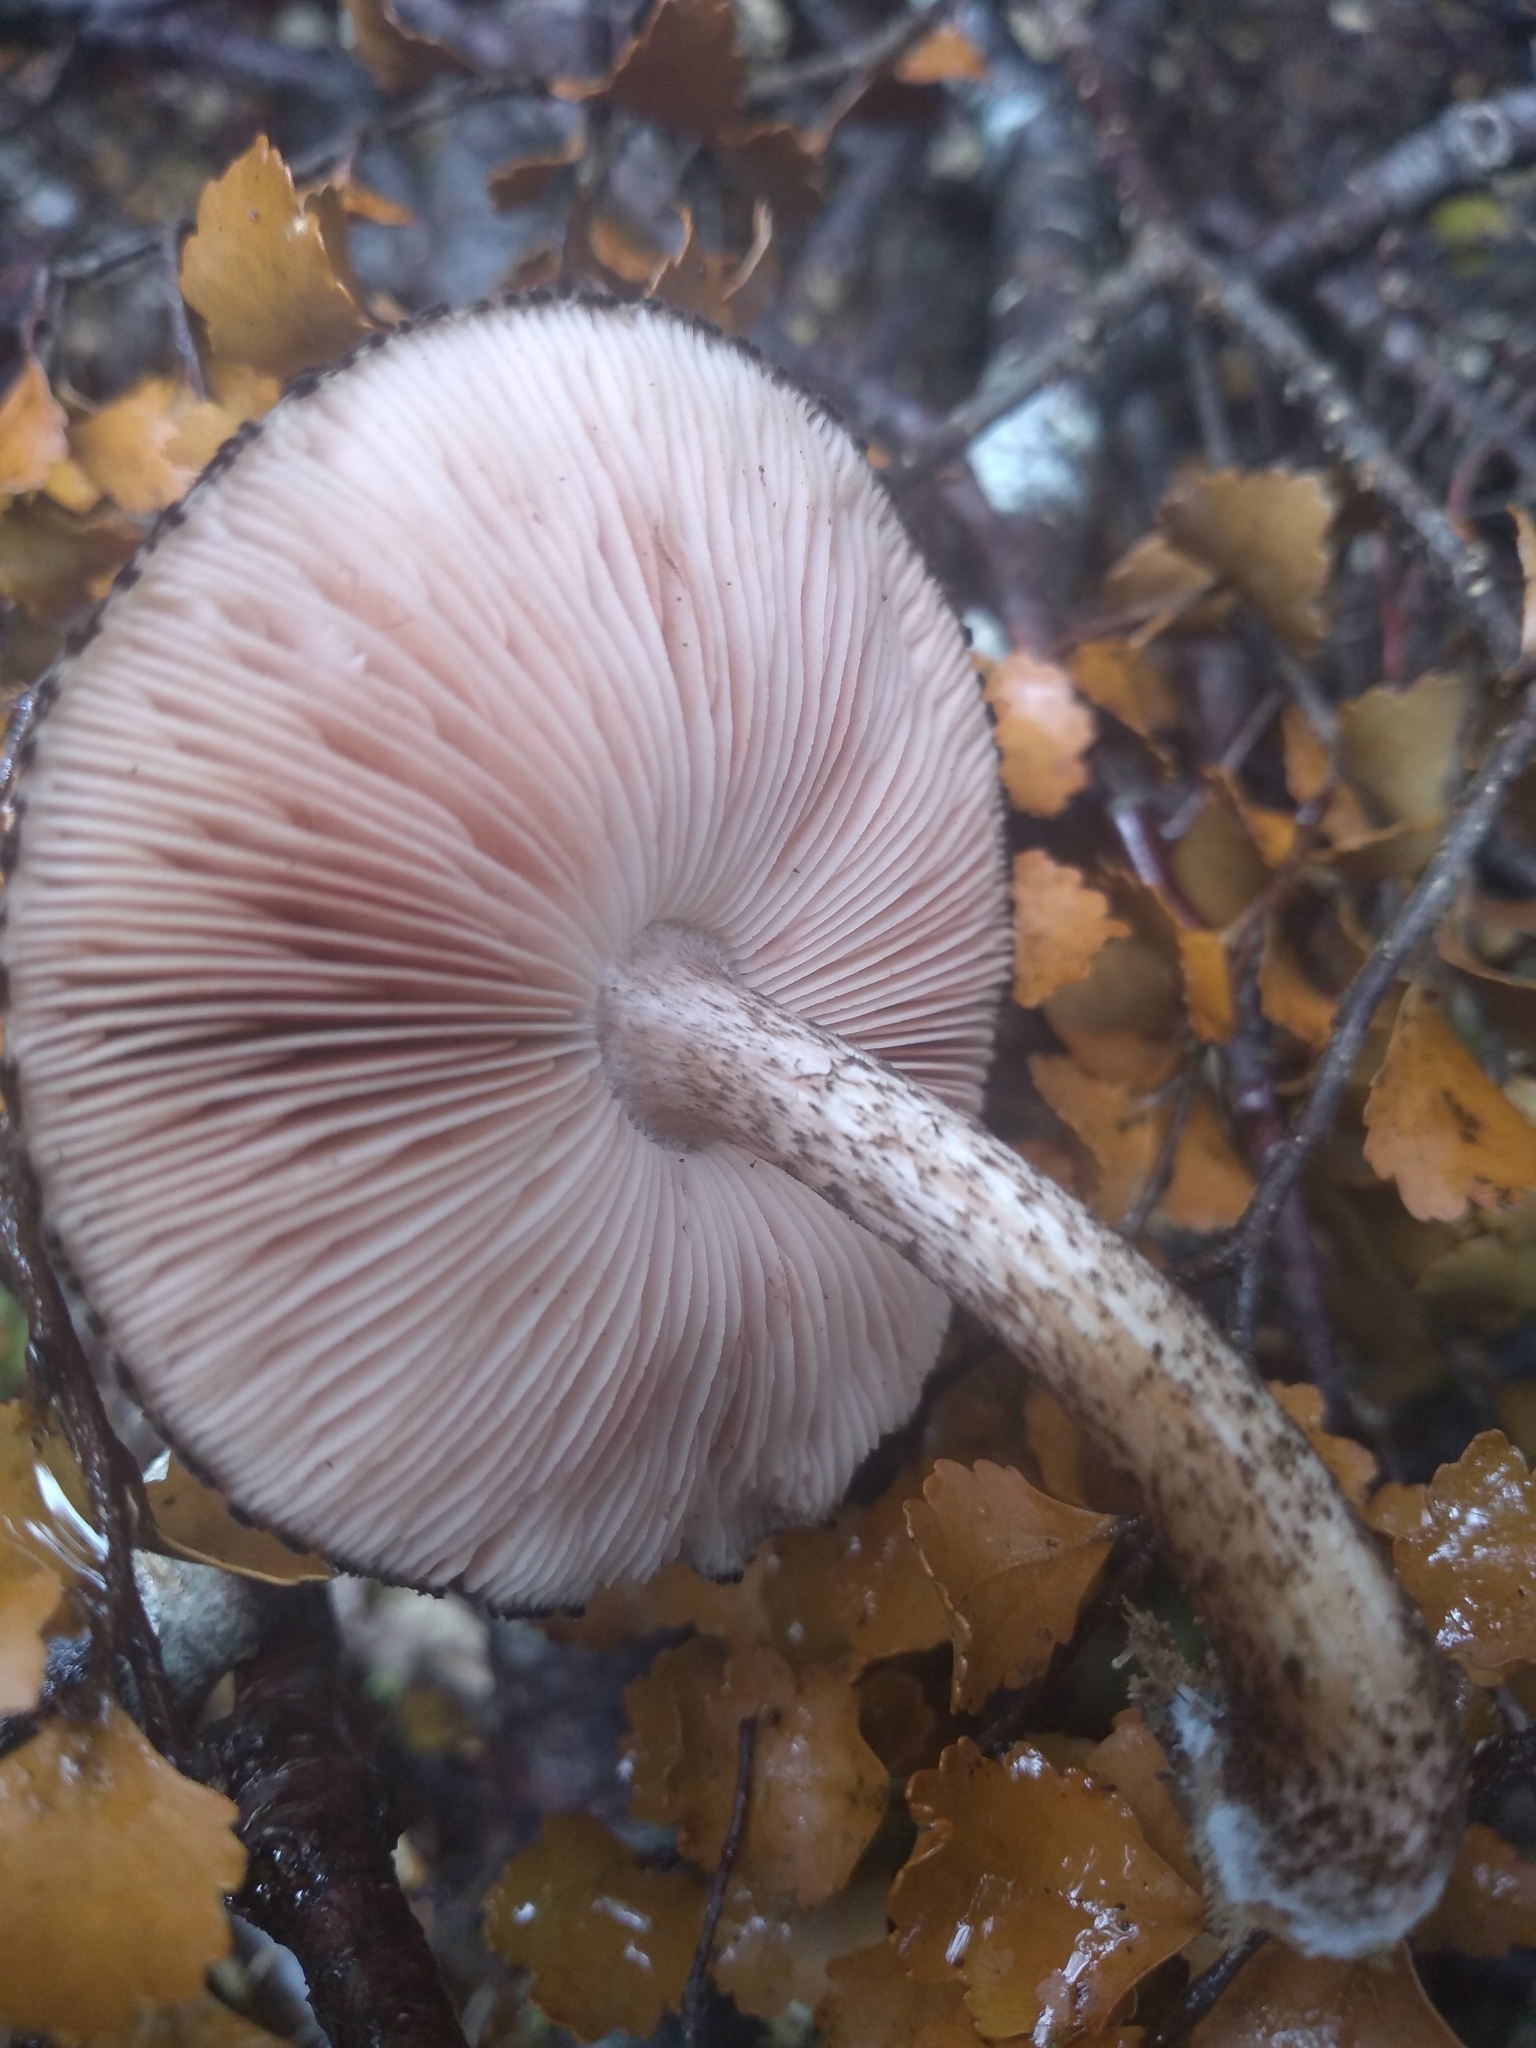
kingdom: Fungi
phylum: Basidiomycota
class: Agaricomycetes
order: Agaricales
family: Pluteaceae
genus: Pluteus
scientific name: Pluteus perroseus
